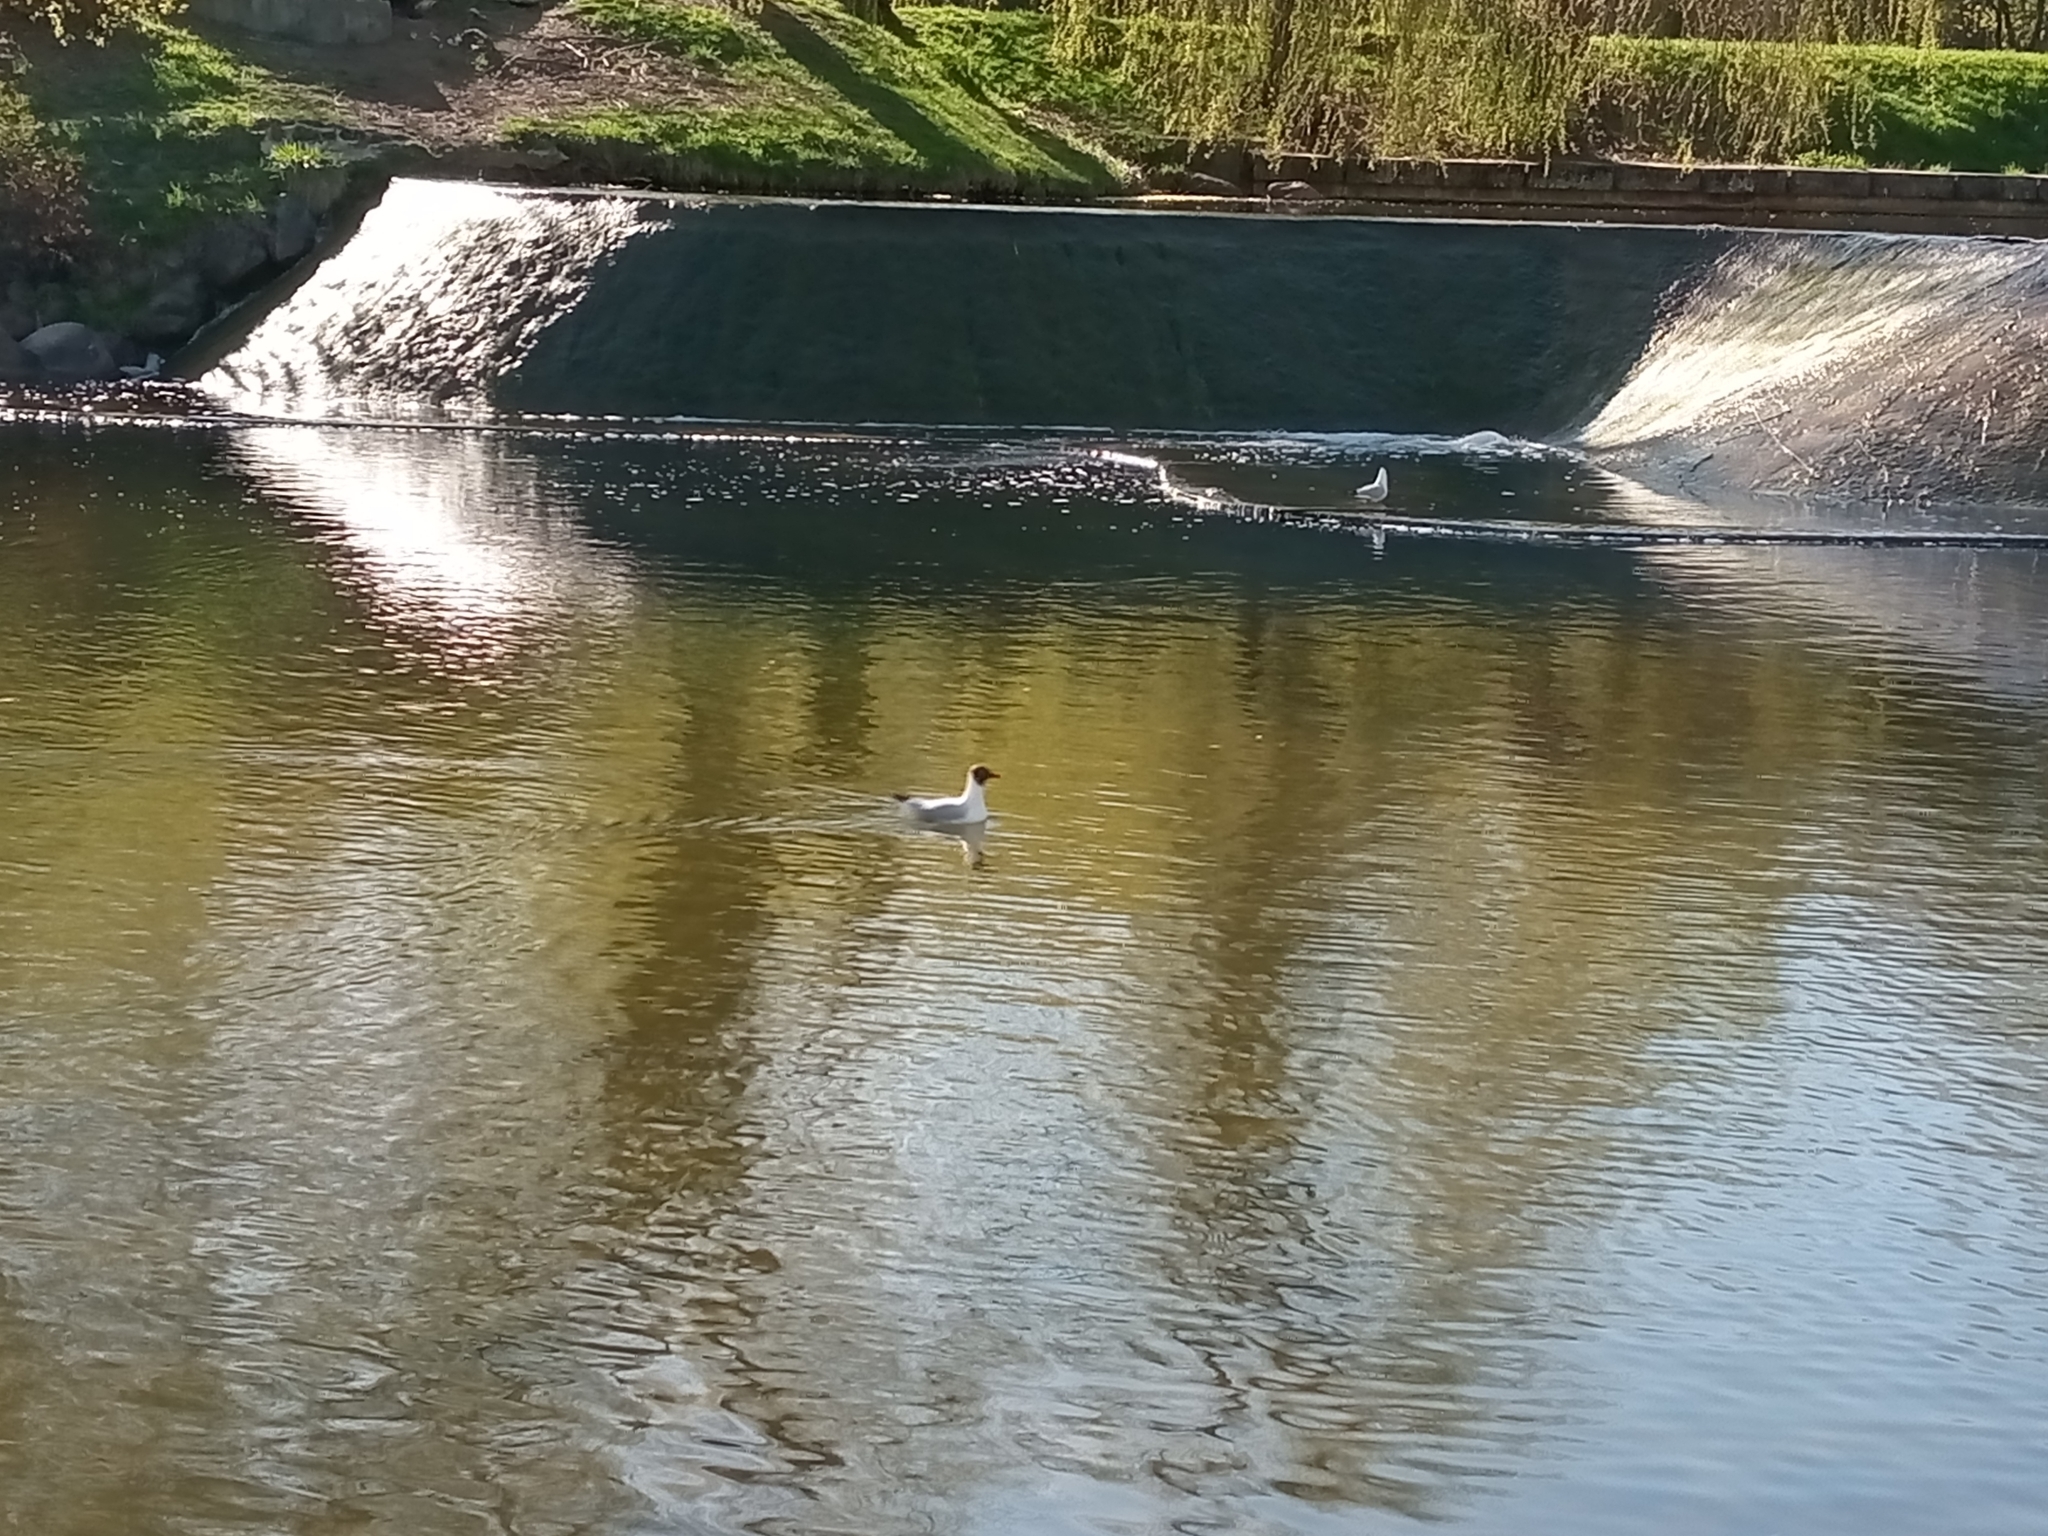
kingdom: Animalia
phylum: Chordata
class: Aves
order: Charadriiformes
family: Laridae
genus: Chroicocephalus
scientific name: Chroicocephalus ridibundus
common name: Black-headed gull
